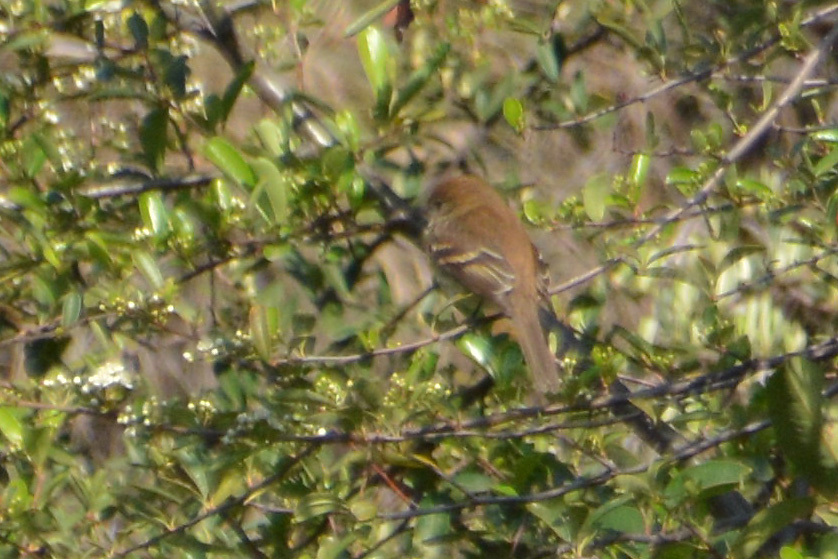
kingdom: Animalia
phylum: Chordata
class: Aves
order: Passeriformes
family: Tyrannidae
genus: Myiophobus
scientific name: Myiophobus fasciatus
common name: Bran-colored flycatcher
